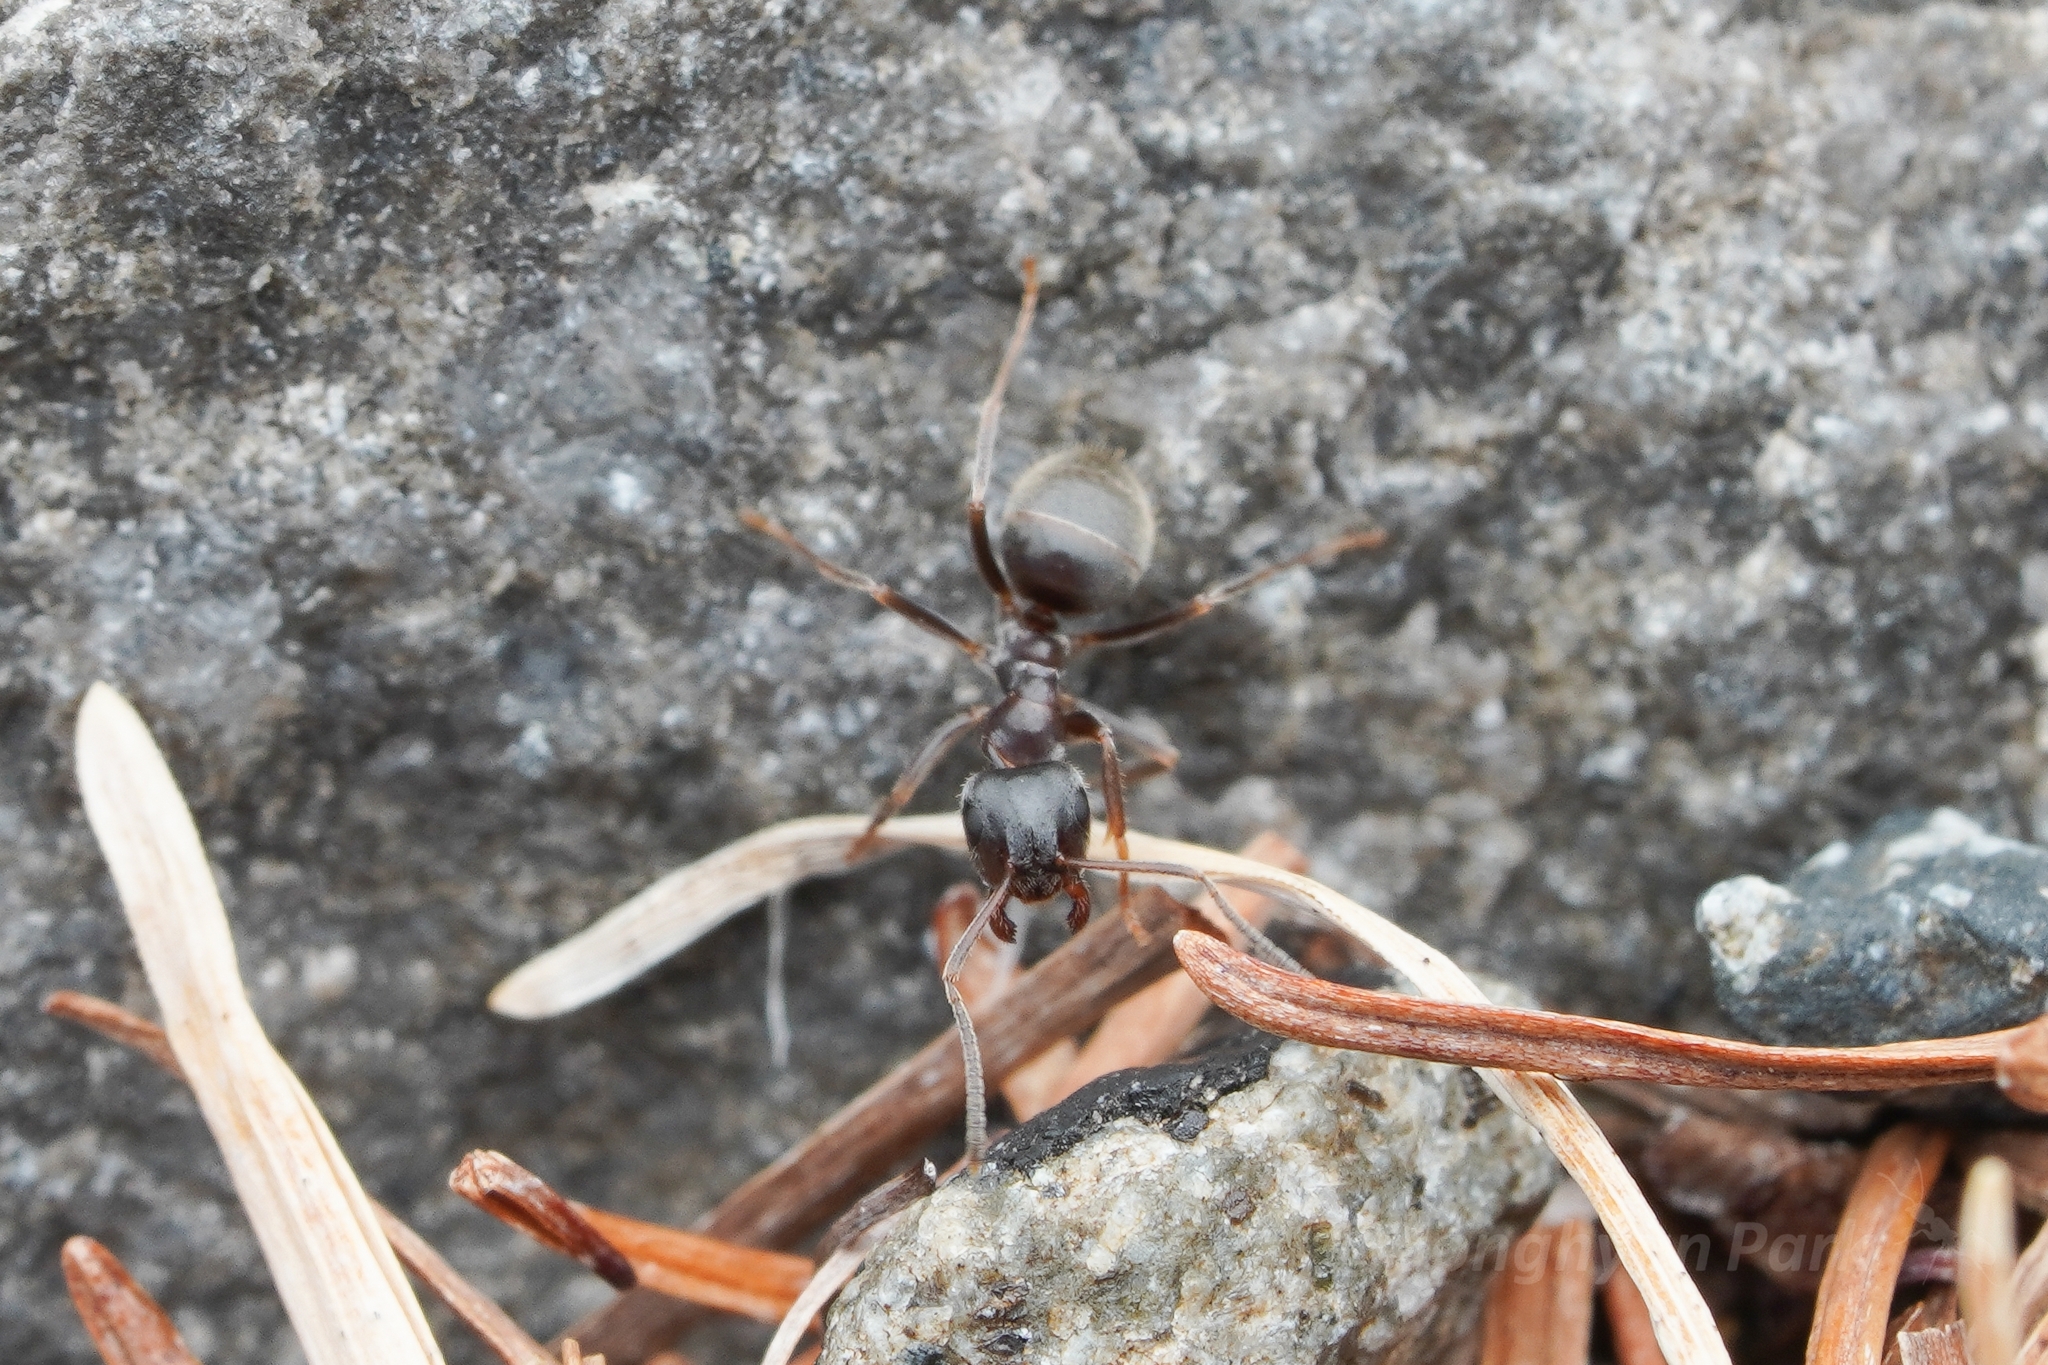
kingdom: Animalia
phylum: Arthropoda
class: Insecta
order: Hymenoptera
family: Formicidae
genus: Lasius
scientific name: Lasius japonicus
